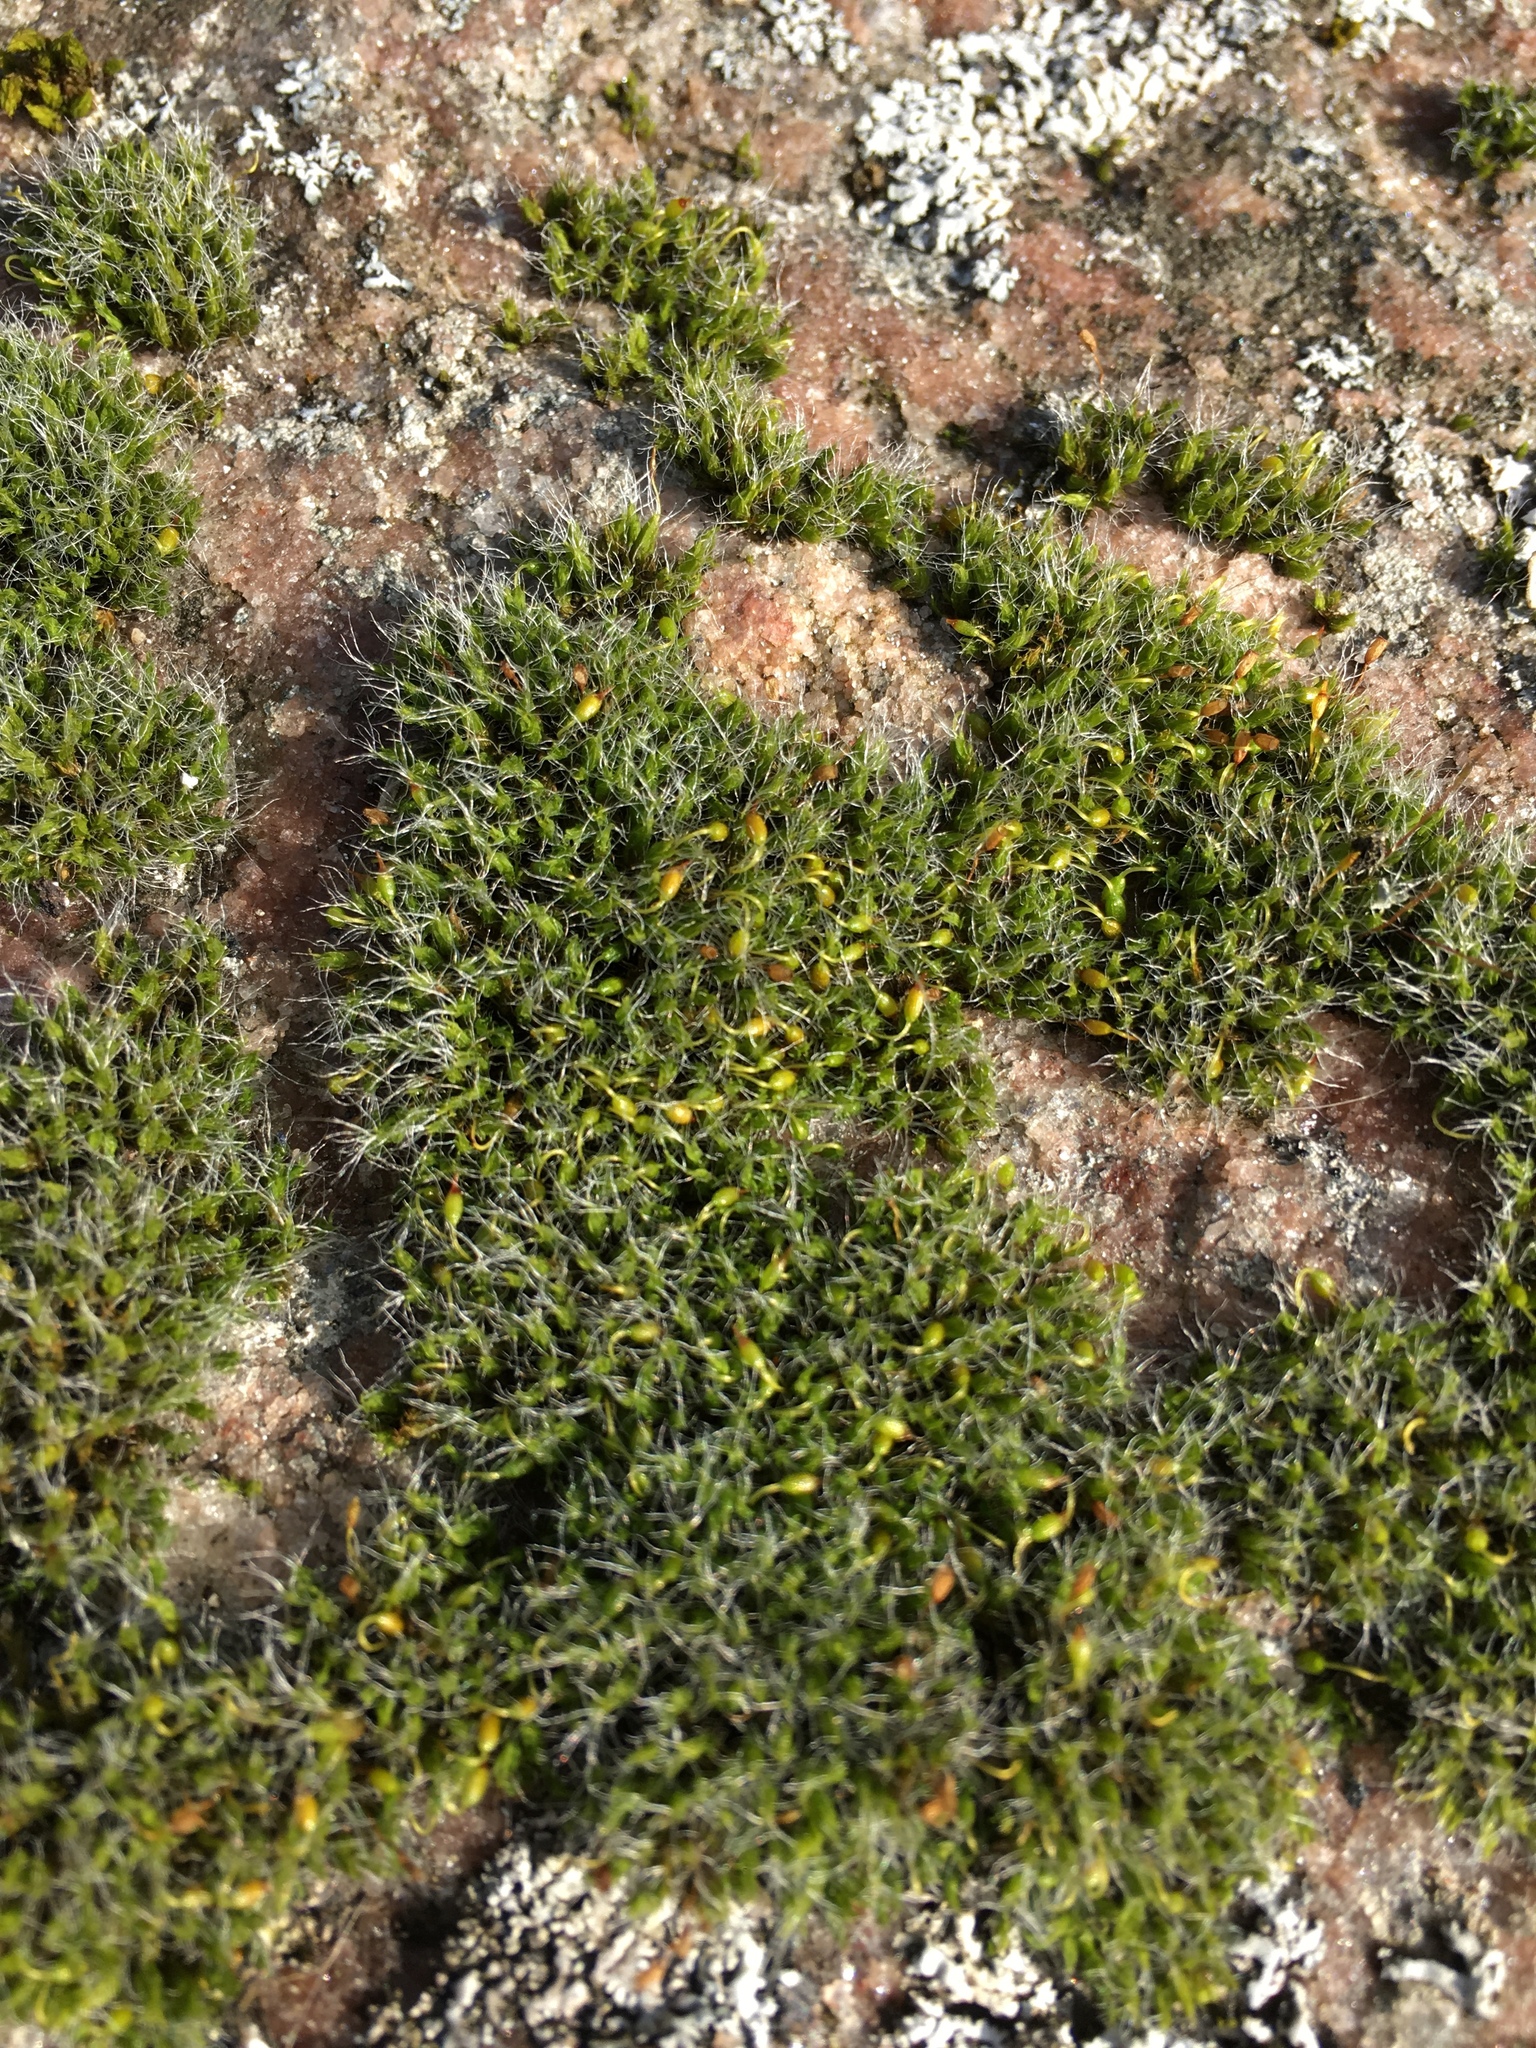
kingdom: Plantae
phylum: Bryophyta
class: Bryopsida
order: Grimmiales
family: Grimmiaceae
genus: Grimmia
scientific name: Grimmia pulvinata
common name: Grey-cushioned grimmia
